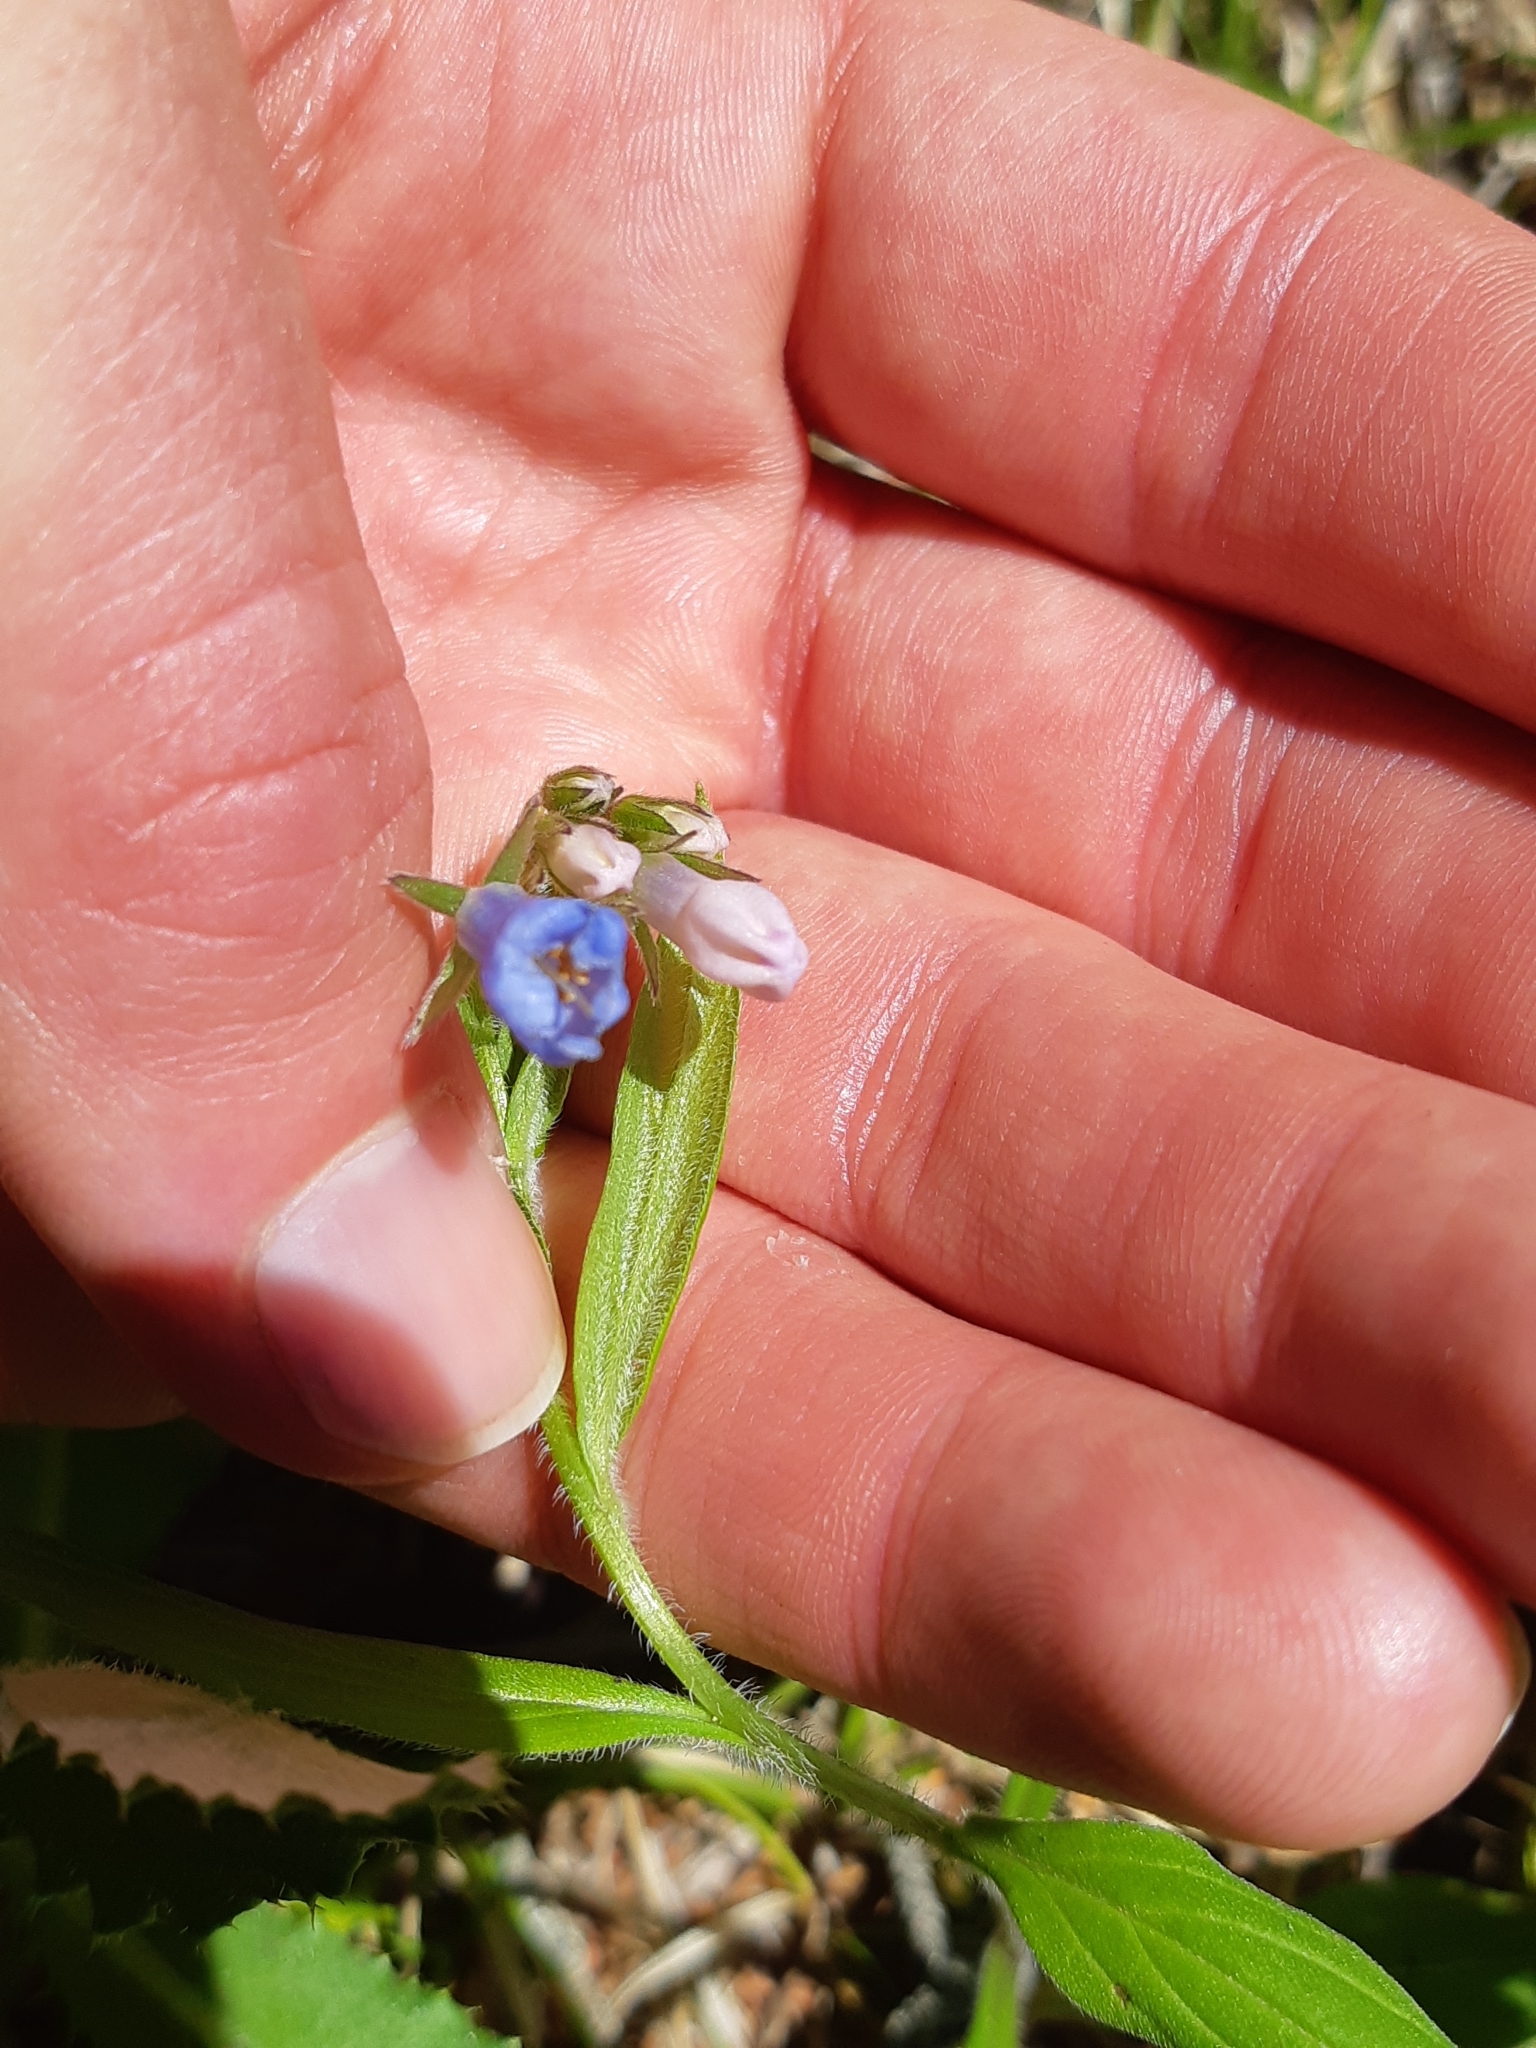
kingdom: Plantae
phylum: Tracheophyta
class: Magnoliopsida
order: Boraginales
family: Boraginaceae
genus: Mertensia
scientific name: Mertensia paniculata
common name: Panicled bluebells
